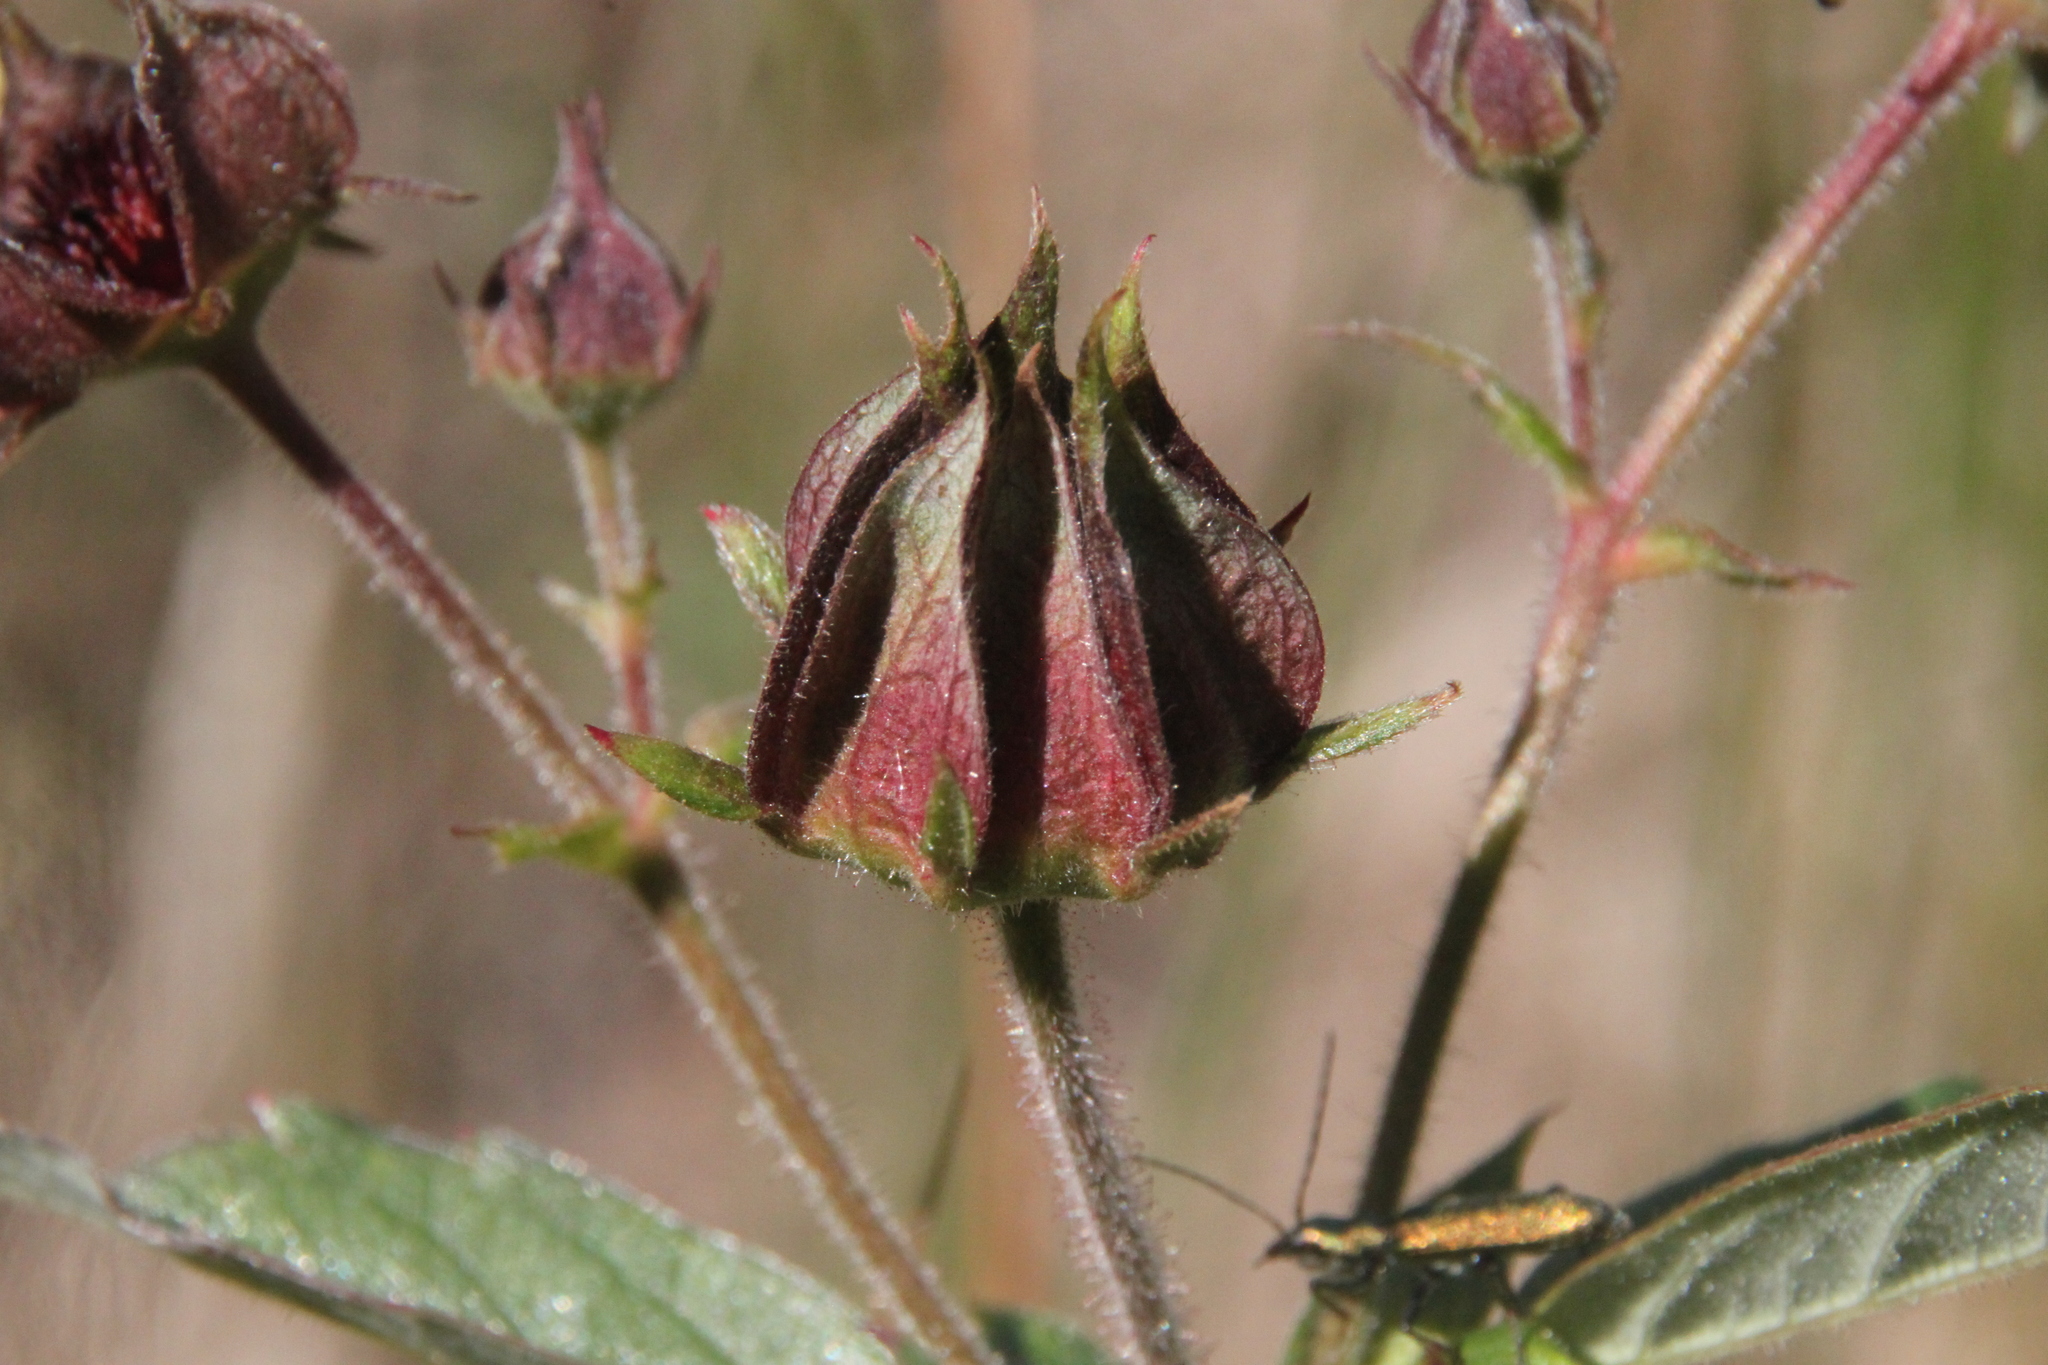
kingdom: Plantae
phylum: Tracheophyta
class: Magnoliopsida
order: Rosales
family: Rosaceae
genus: Comarum
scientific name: Comarum palustre
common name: Marsh cinquefoil
